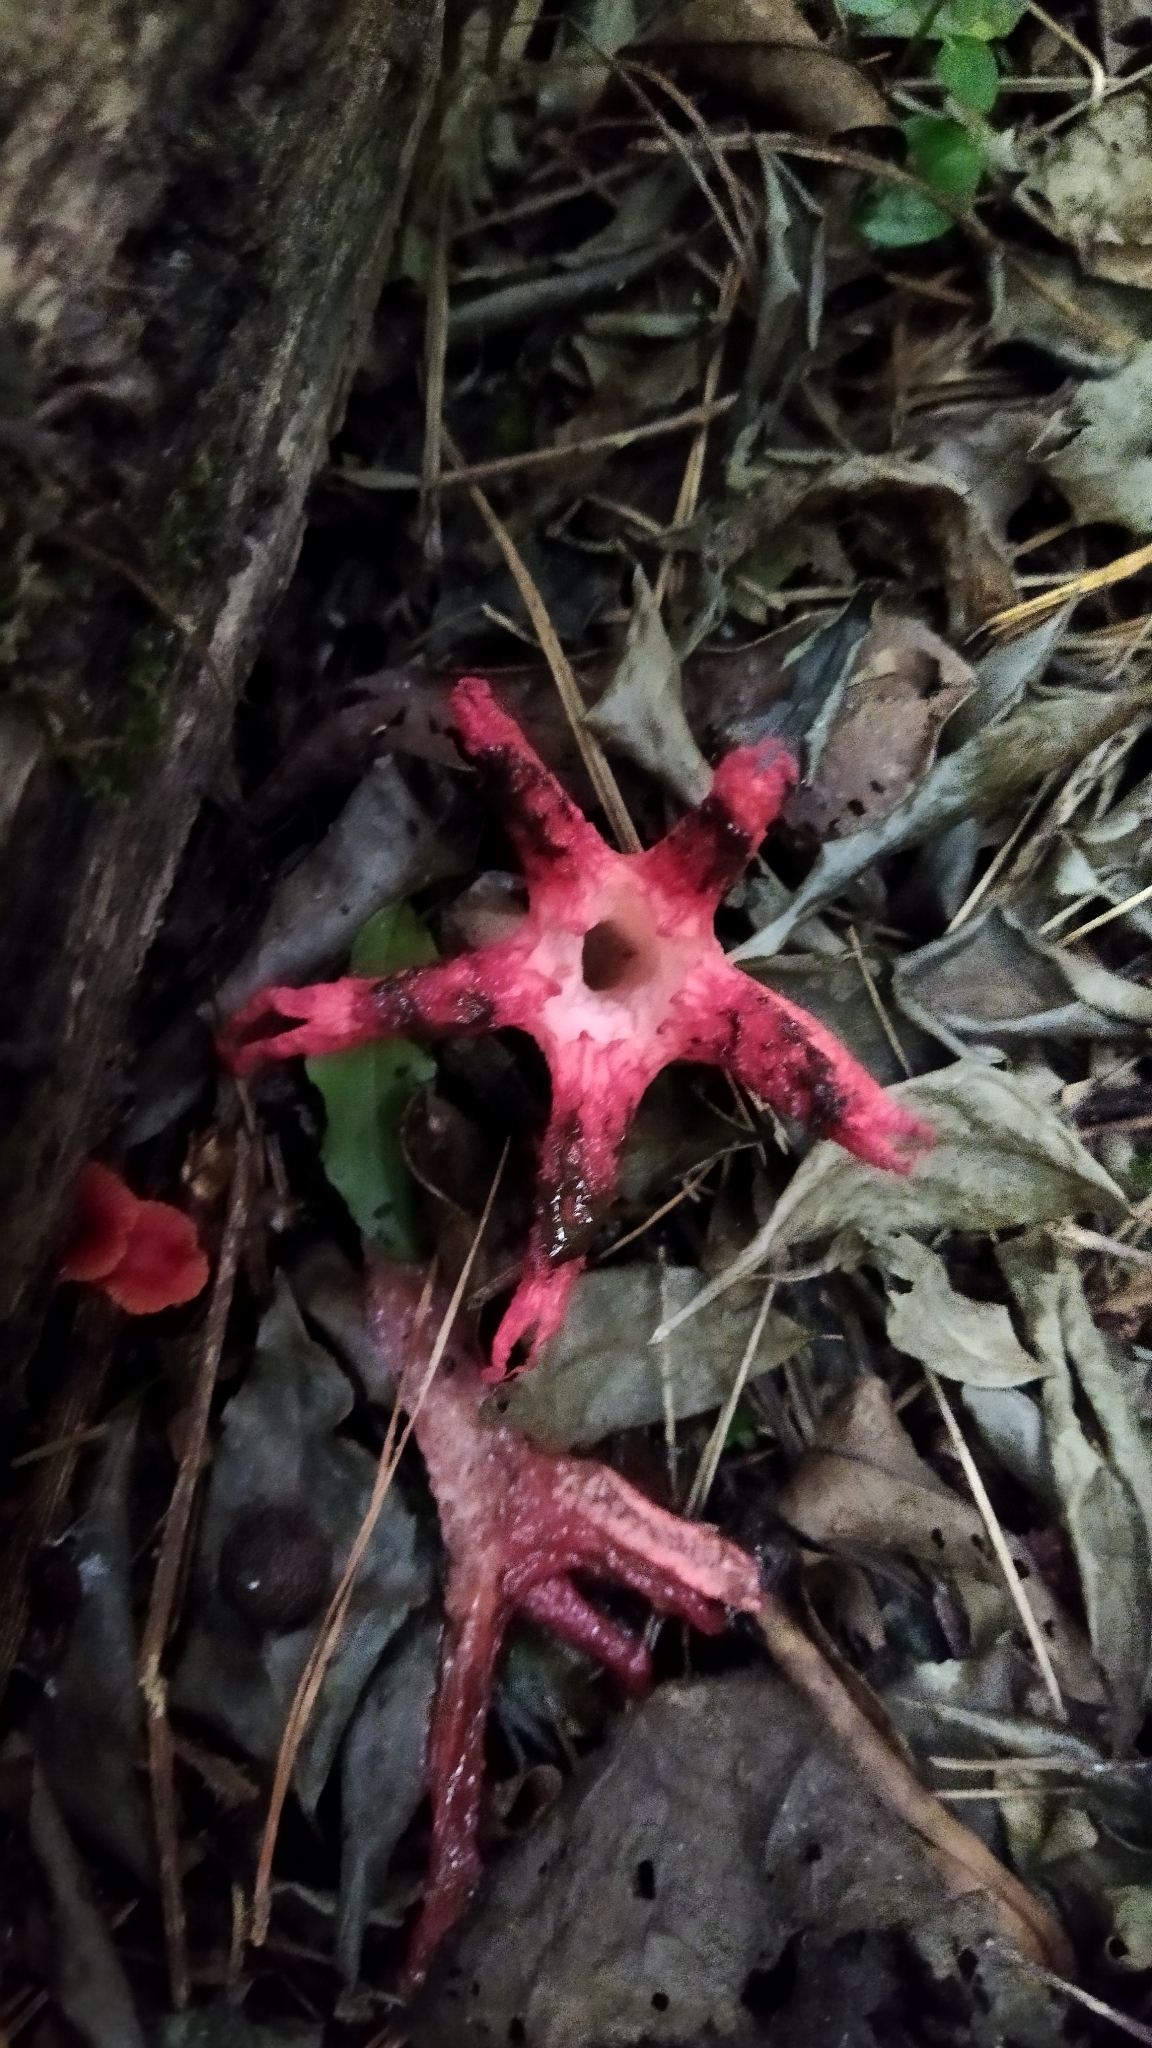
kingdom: Fungi
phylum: Basidiomycota
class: Agaricomycetes
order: Phallales
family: Phallaceae
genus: Clathrus
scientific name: Clathrus archeri
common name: Devil's fingers
